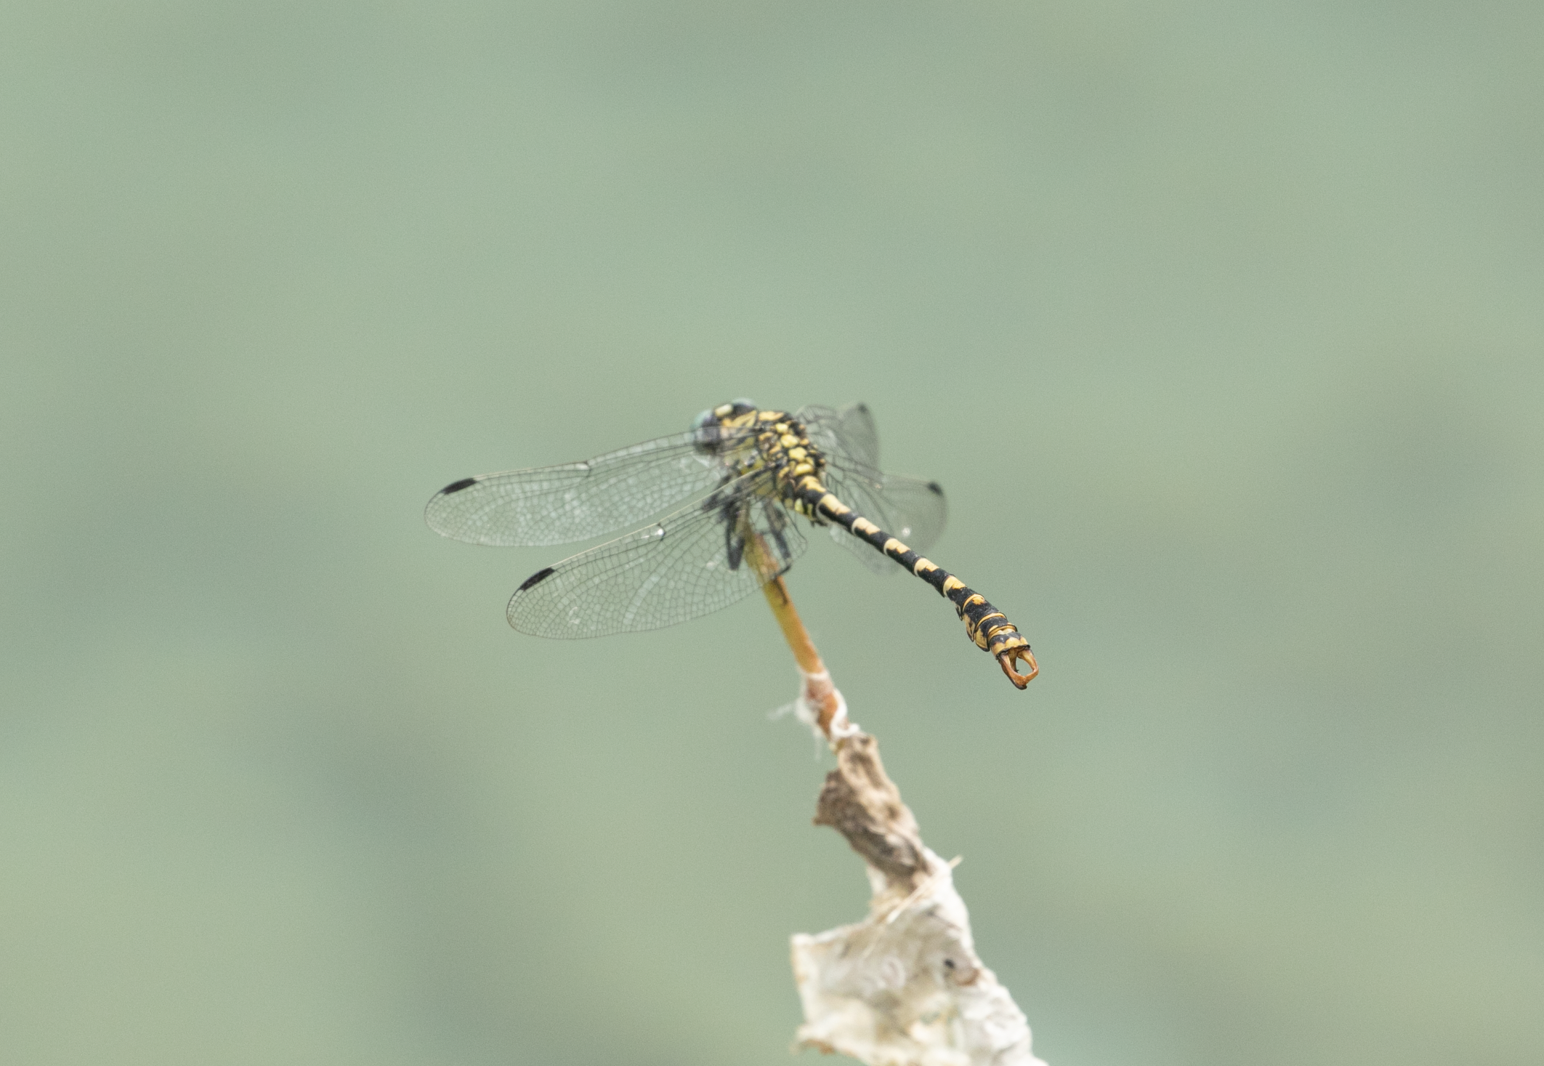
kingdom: Animalia
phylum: Arthropoda
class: Insecta
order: Odonata
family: Gomphidae
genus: Onychogomphus
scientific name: Onychogomphus forcipatus
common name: Small pincertail
